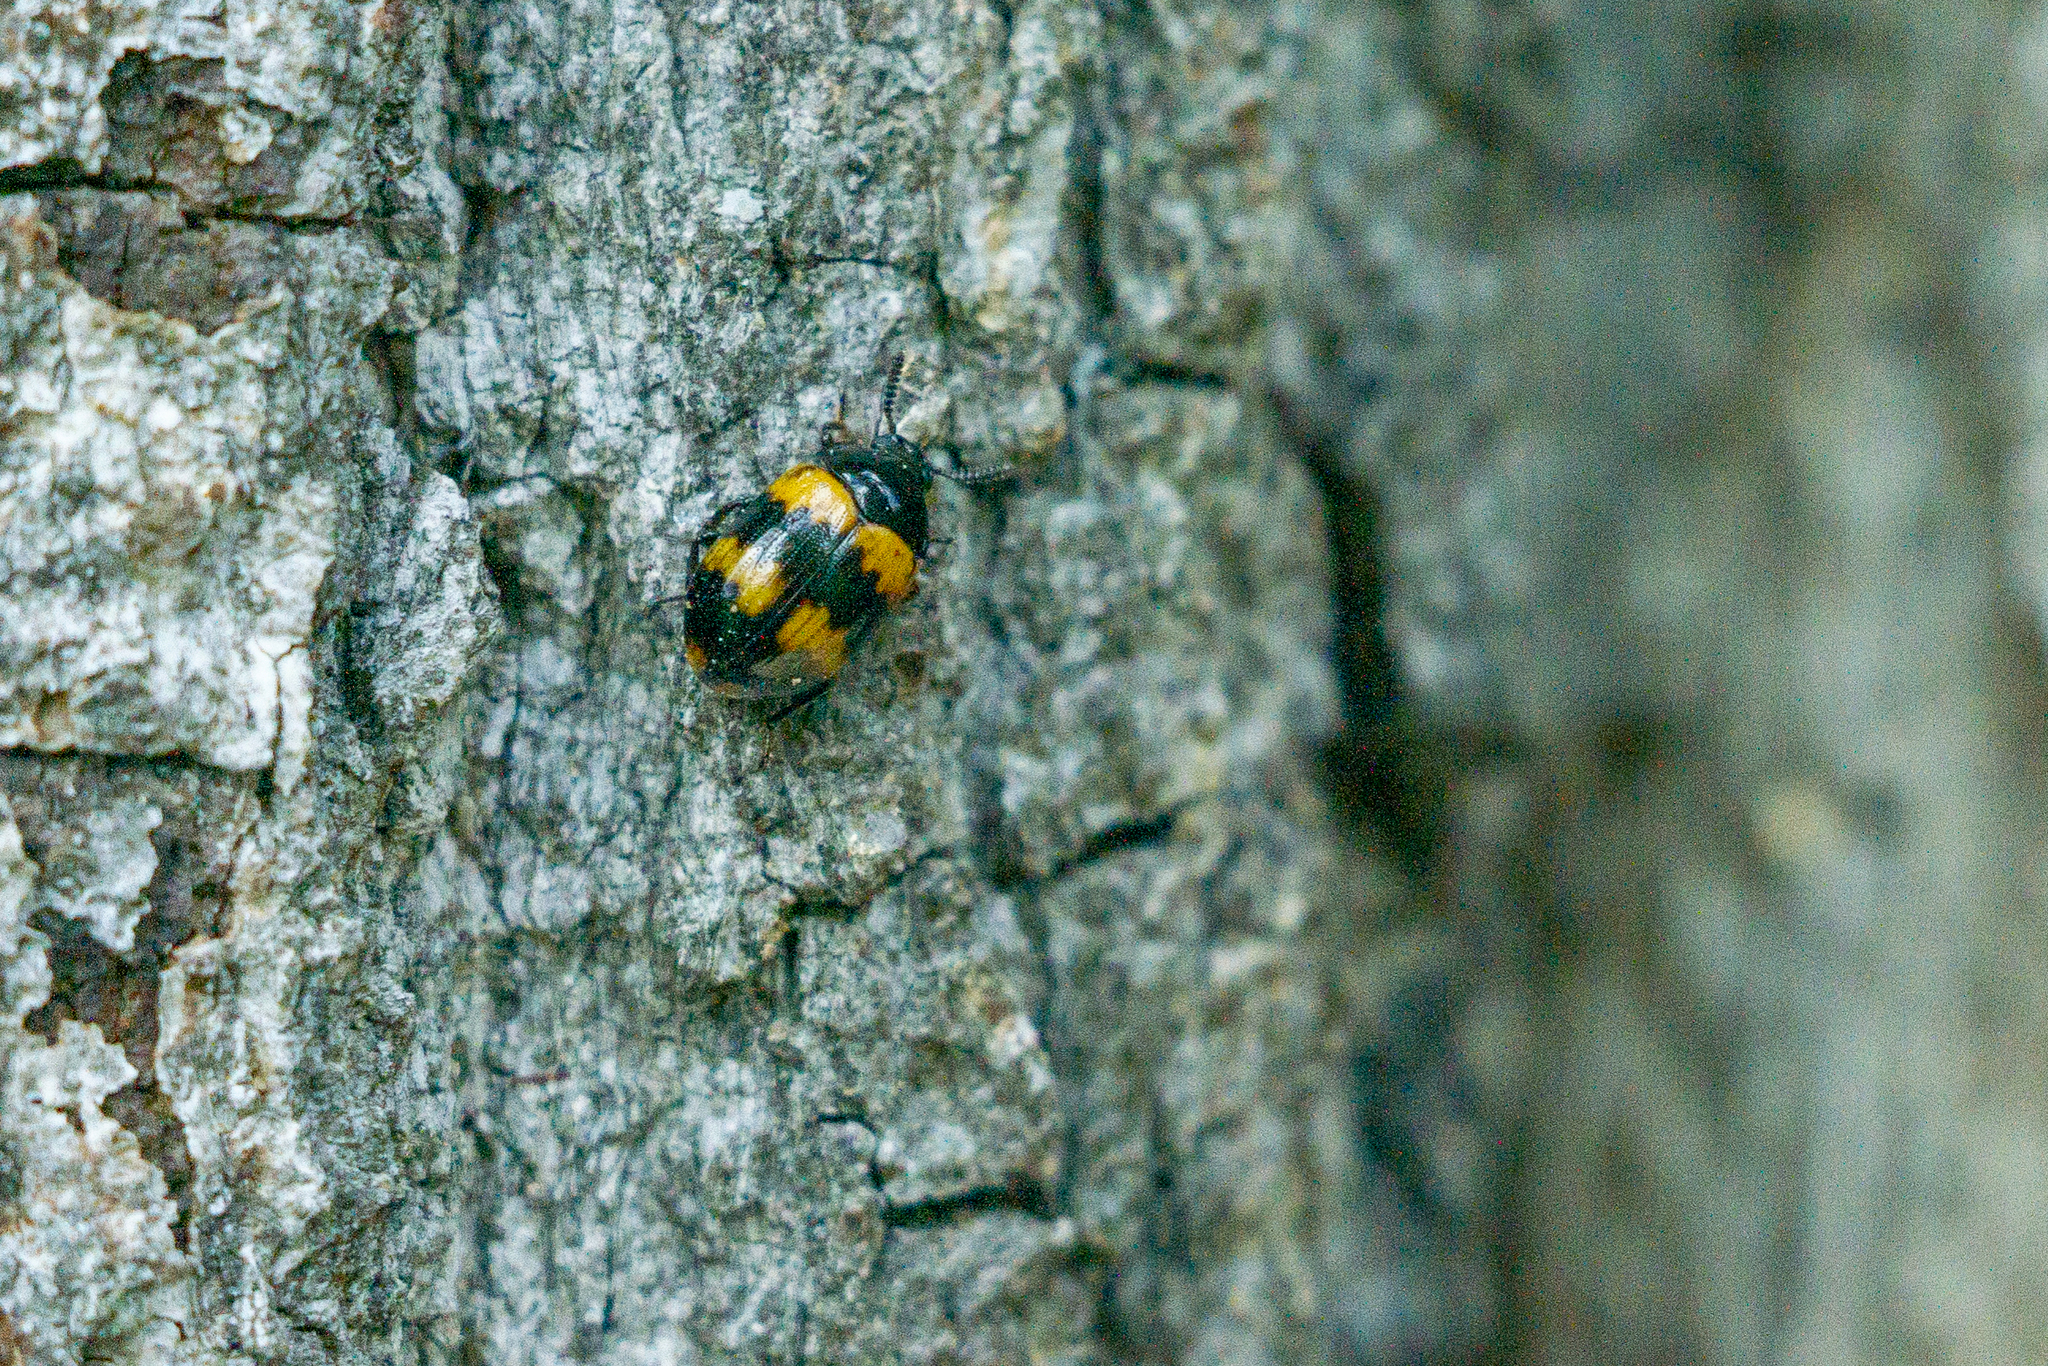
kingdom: Animalia
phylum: Arthropoda
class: Insecta
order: Coleoptera
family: Tenebrionidae
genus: Diaperis
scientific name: Diaperis boleti
